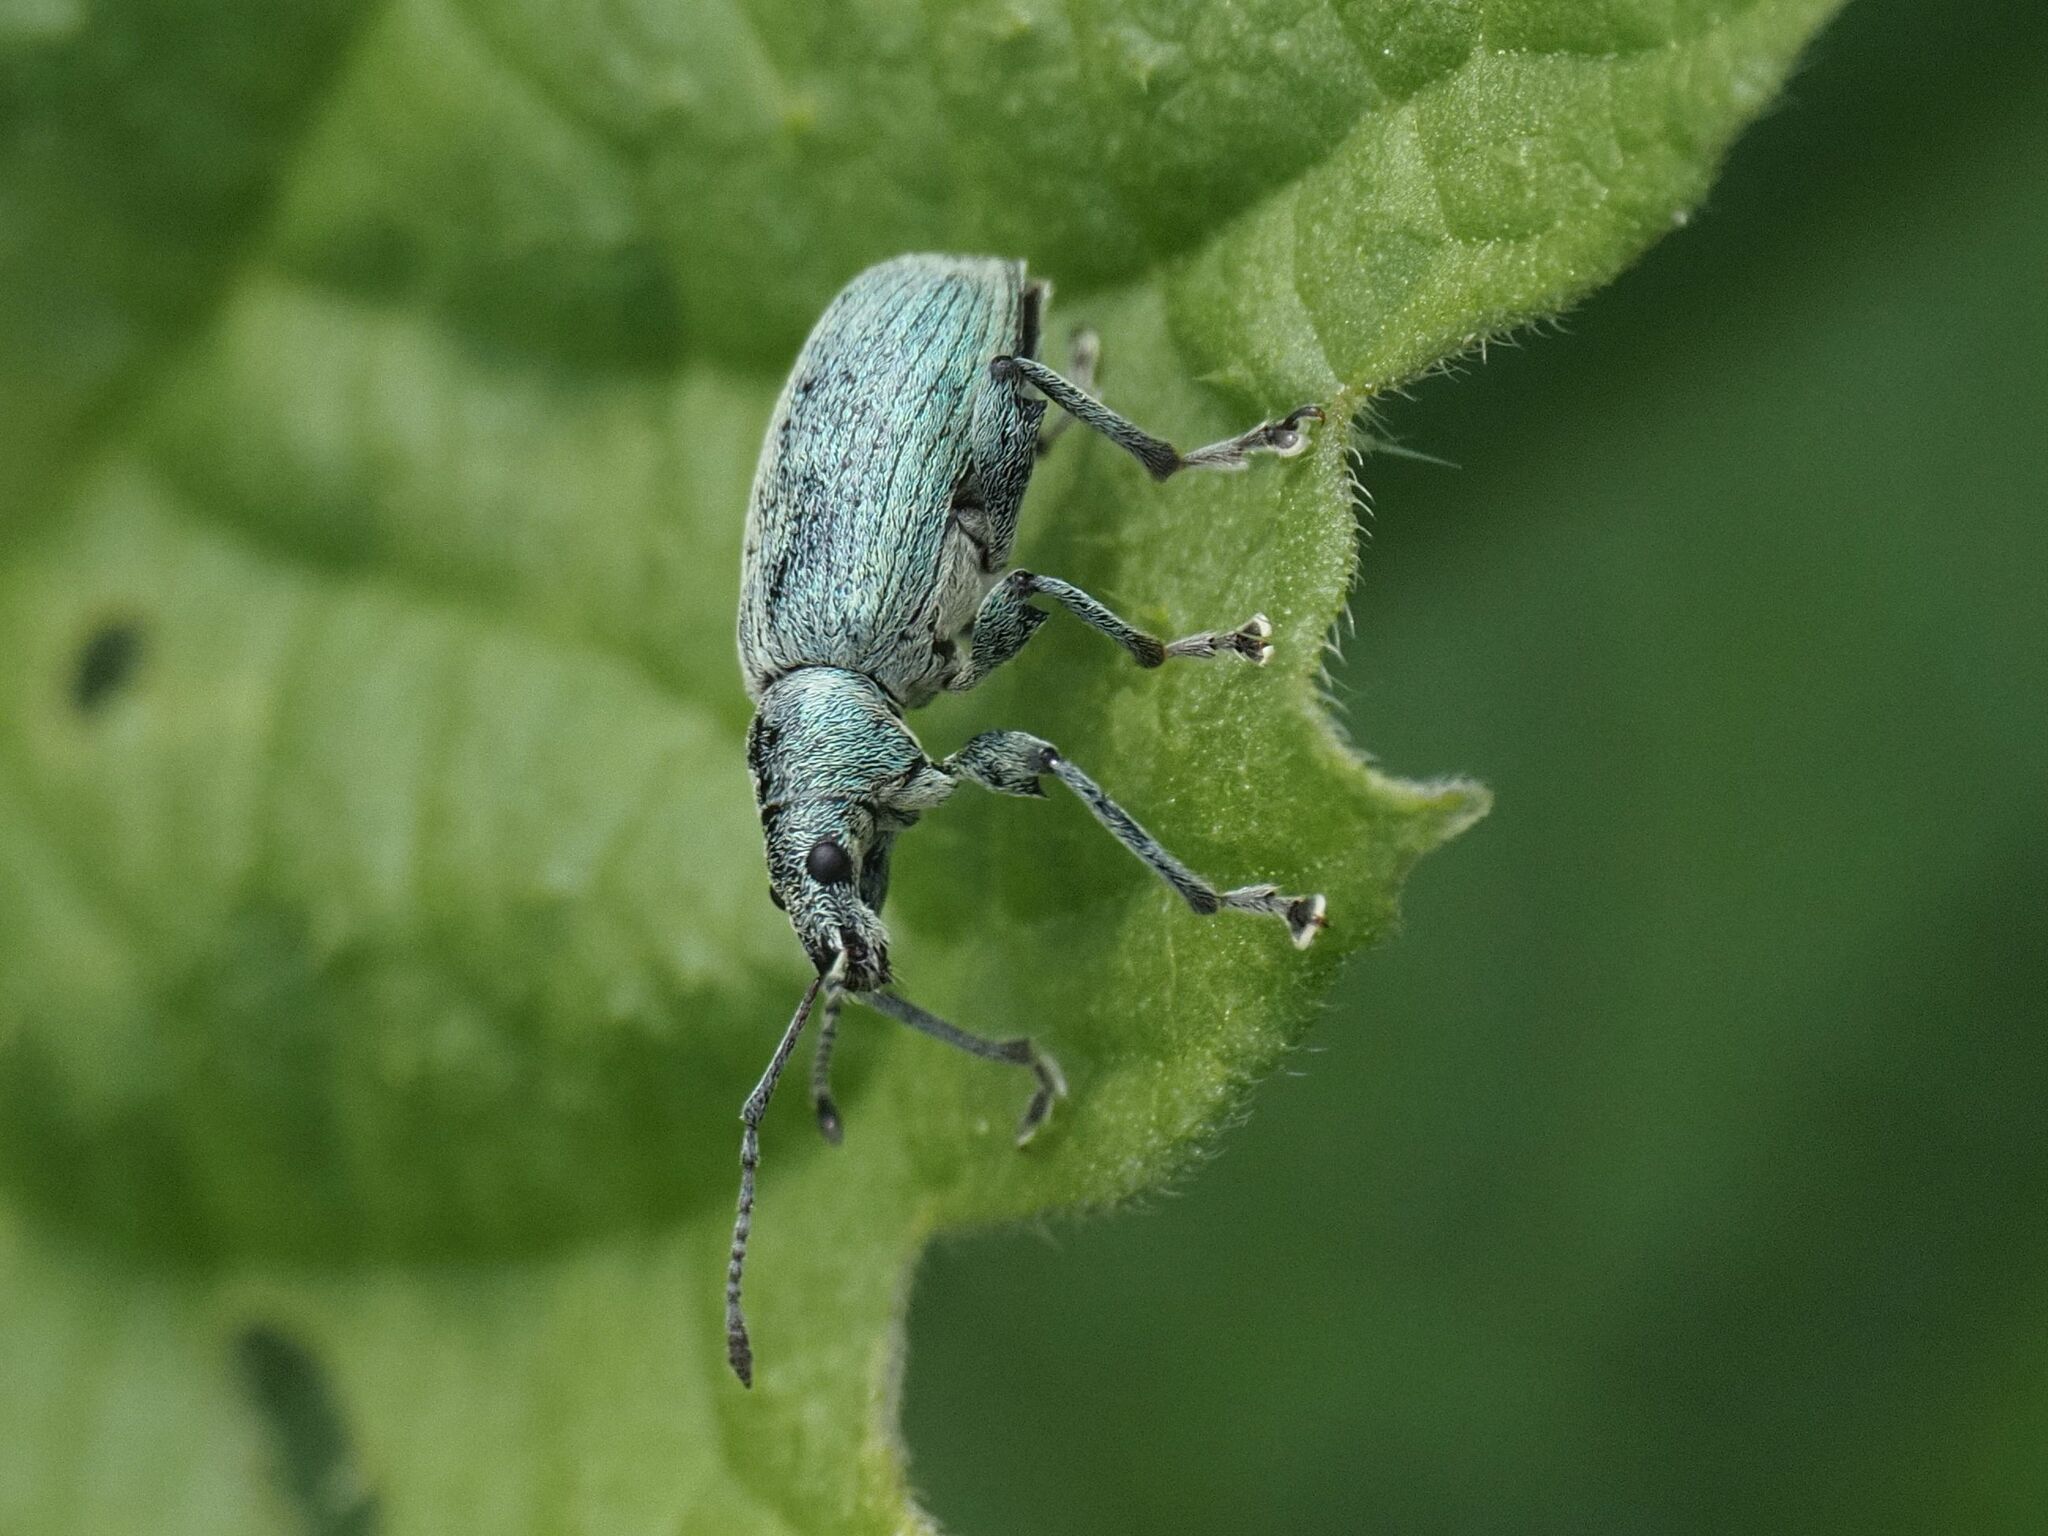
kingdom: Animalia
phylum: Arthropoda
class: Insecta
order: Coleoptera
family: Curculionidae
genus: Phyllobius
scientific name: Phyllobius pomaceus
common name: Green nettle weevil
